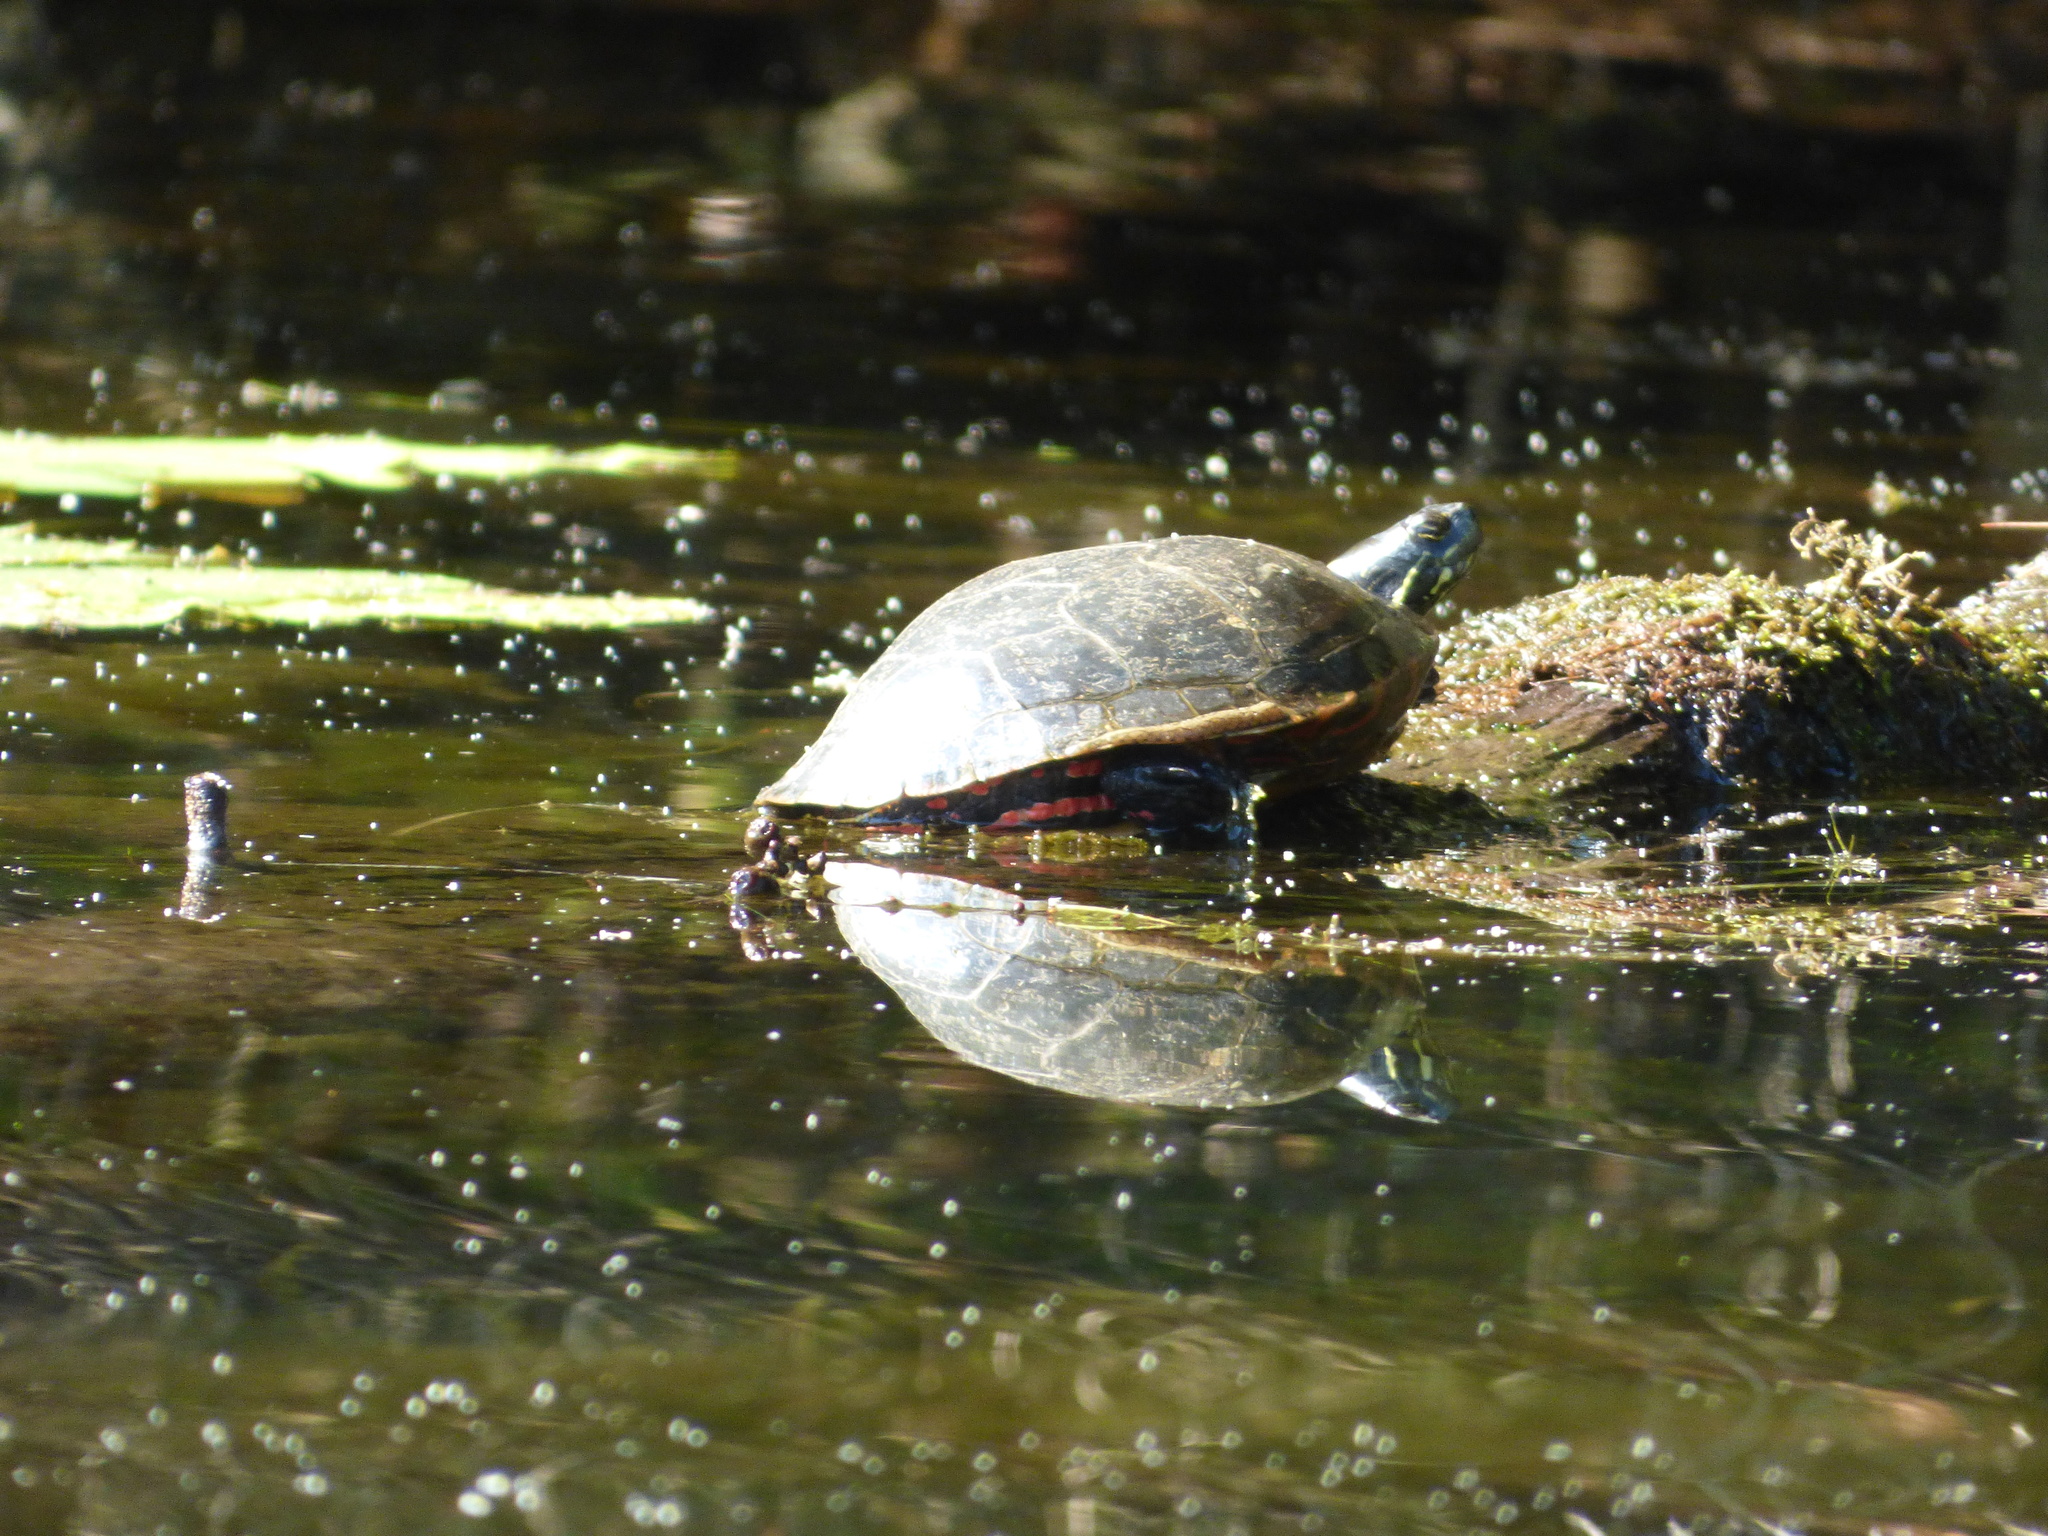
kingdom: Animalia
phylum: Chordata
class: Testudines
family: Emydidae
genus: Chrysemys
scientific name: Chrysemys picta
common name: Painted turtle
